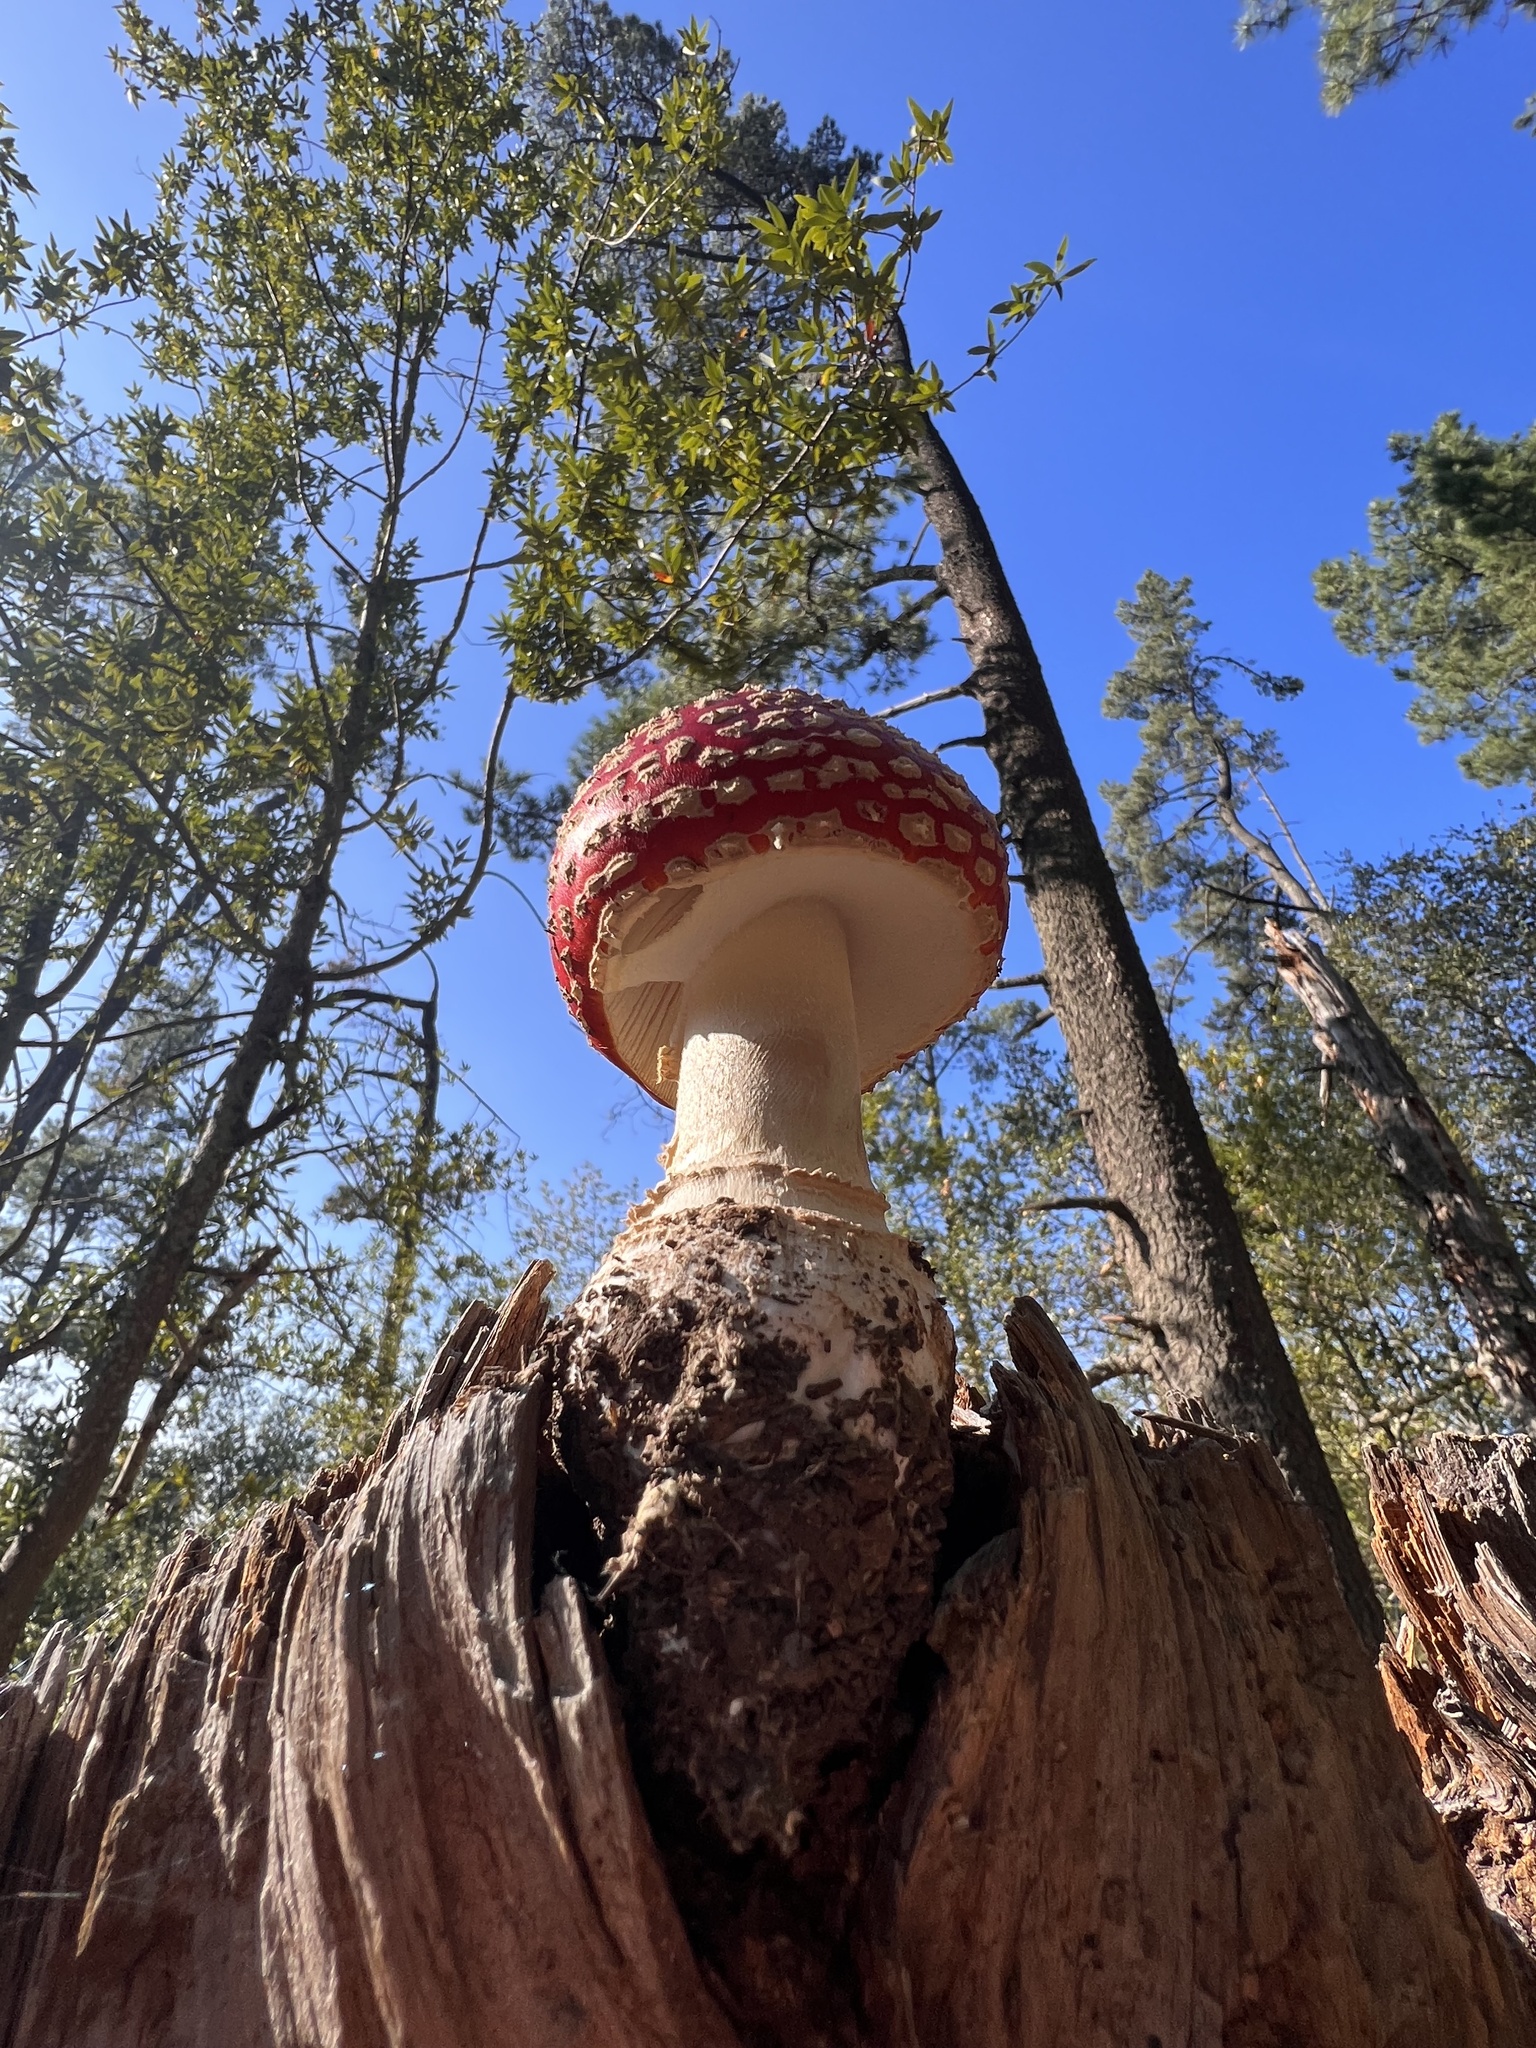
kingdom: Fungi
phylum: Basidiomycota
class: Agaricomycetes
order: Agaricales
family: Amanitaceae
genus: Amanita
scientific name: Amanita muscaria
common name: Fly agaric
